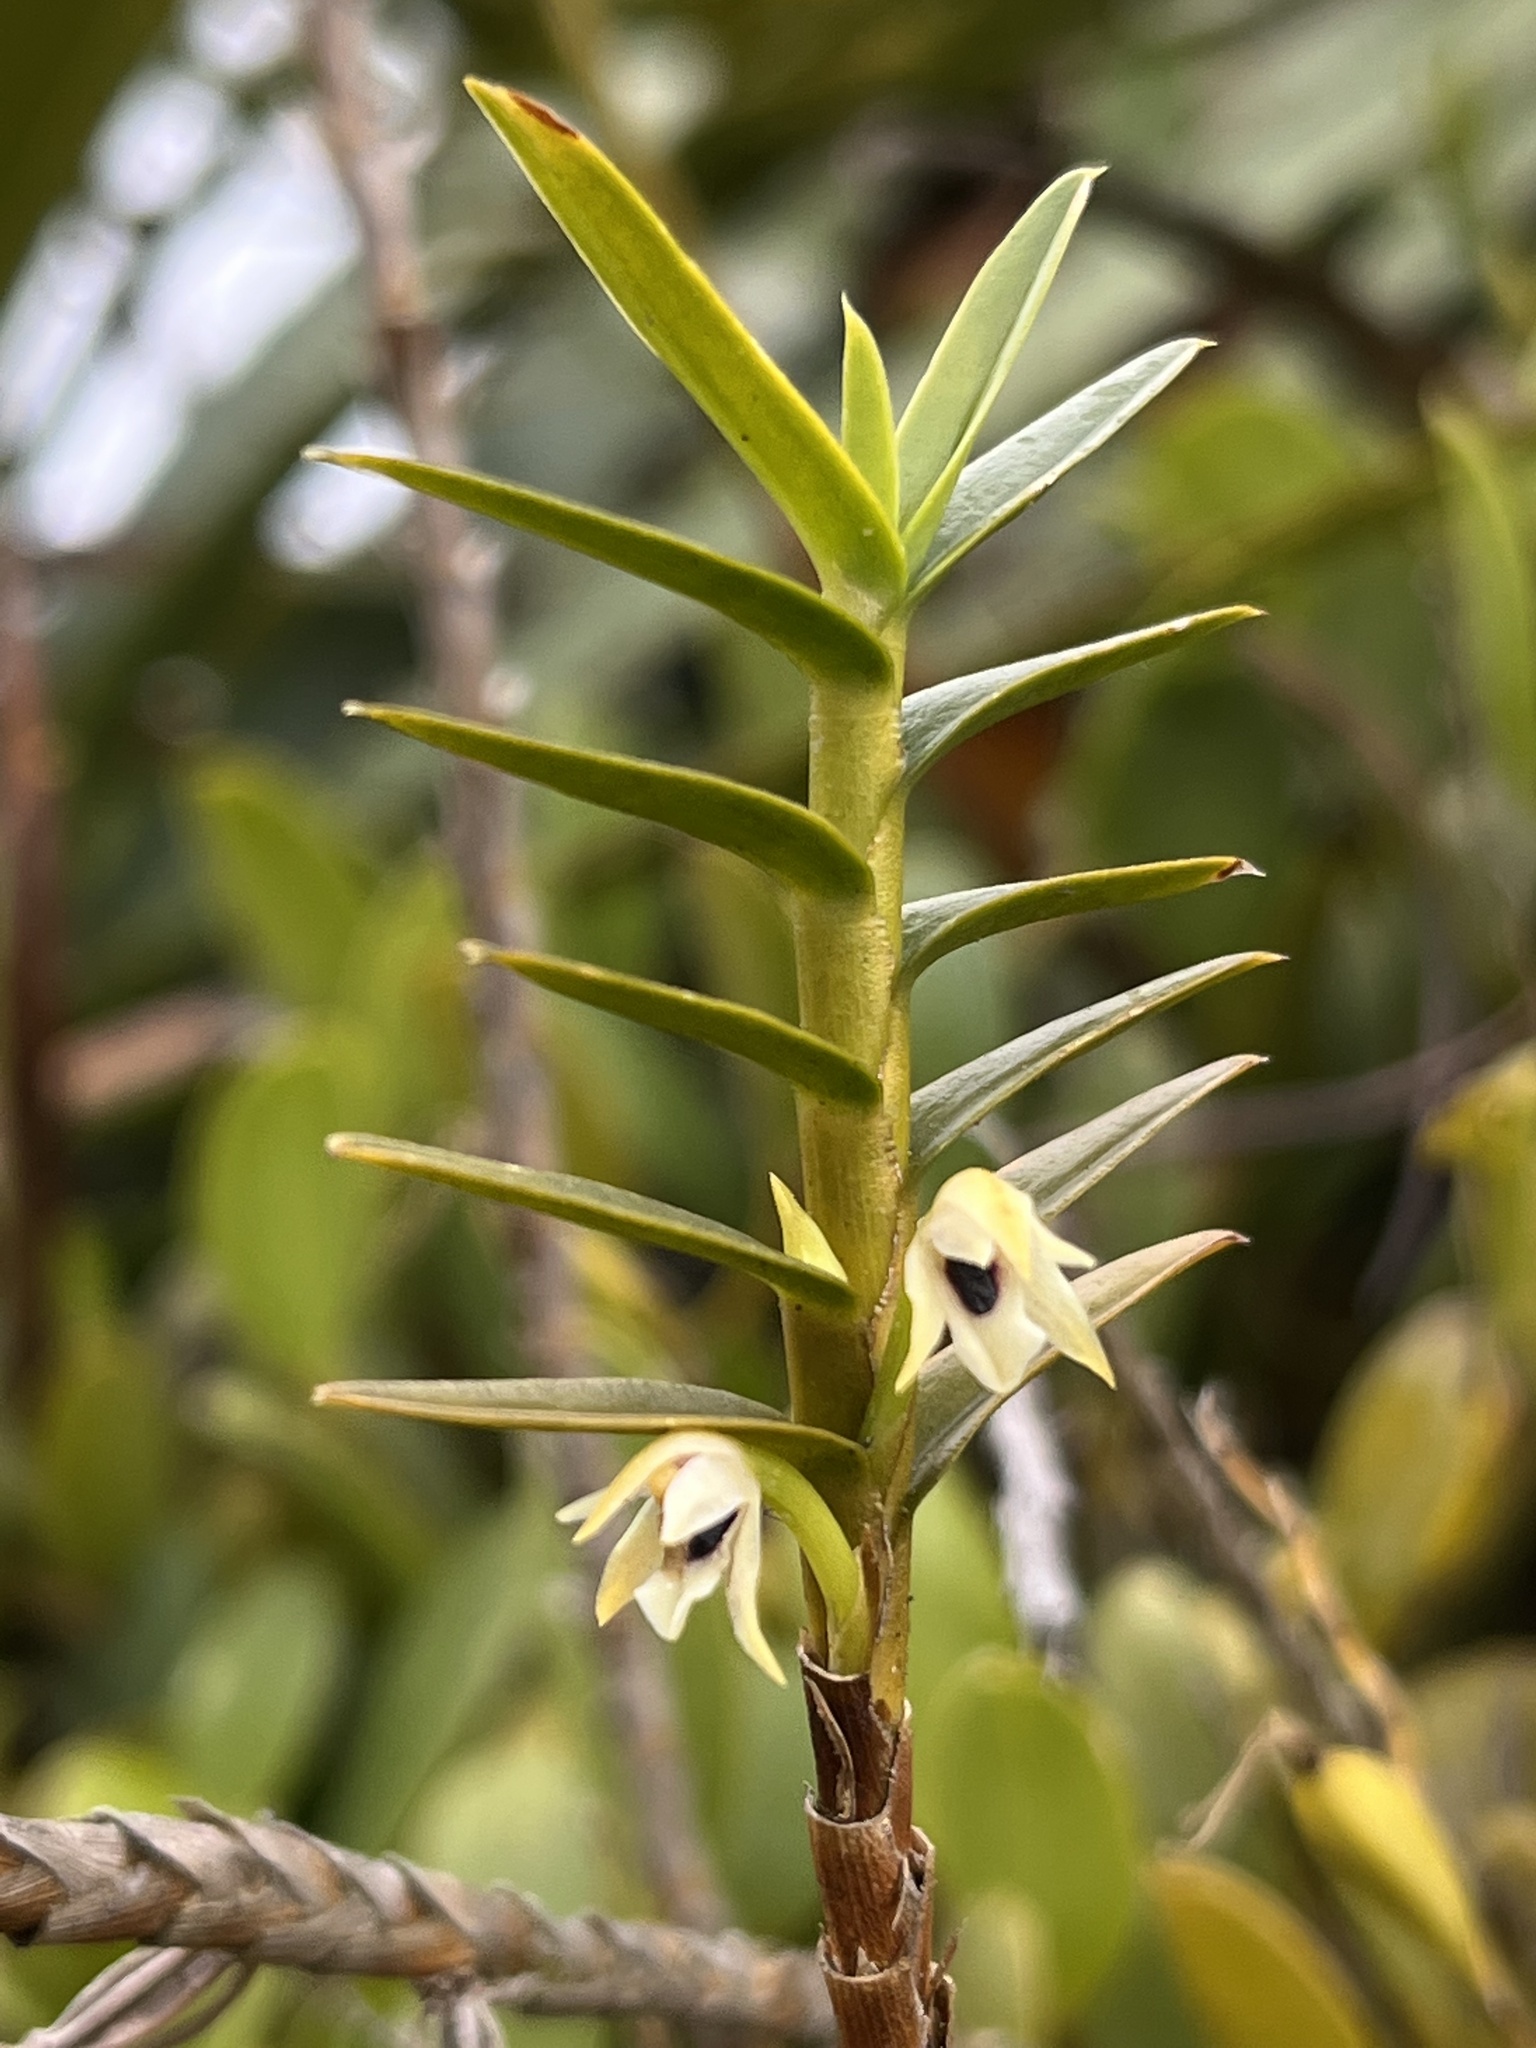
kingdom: Plantae
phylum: Tracheophyta
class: Liliopsida
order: Asparagales
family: Orchidaceae
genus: Maxillaria
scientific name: Maxillaria graminifolia
